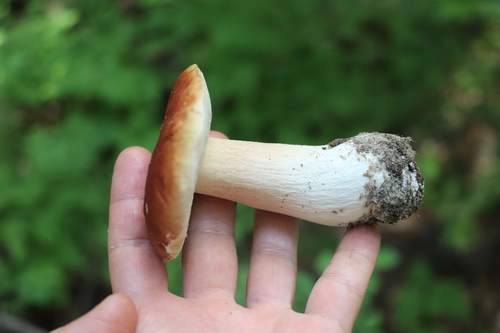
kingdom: Fungi
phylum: Basidiomycota
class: Agaricomycetes
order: Boletales
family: Boletaceae
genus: Boletus
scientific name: Boletus edulis
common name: Cep
